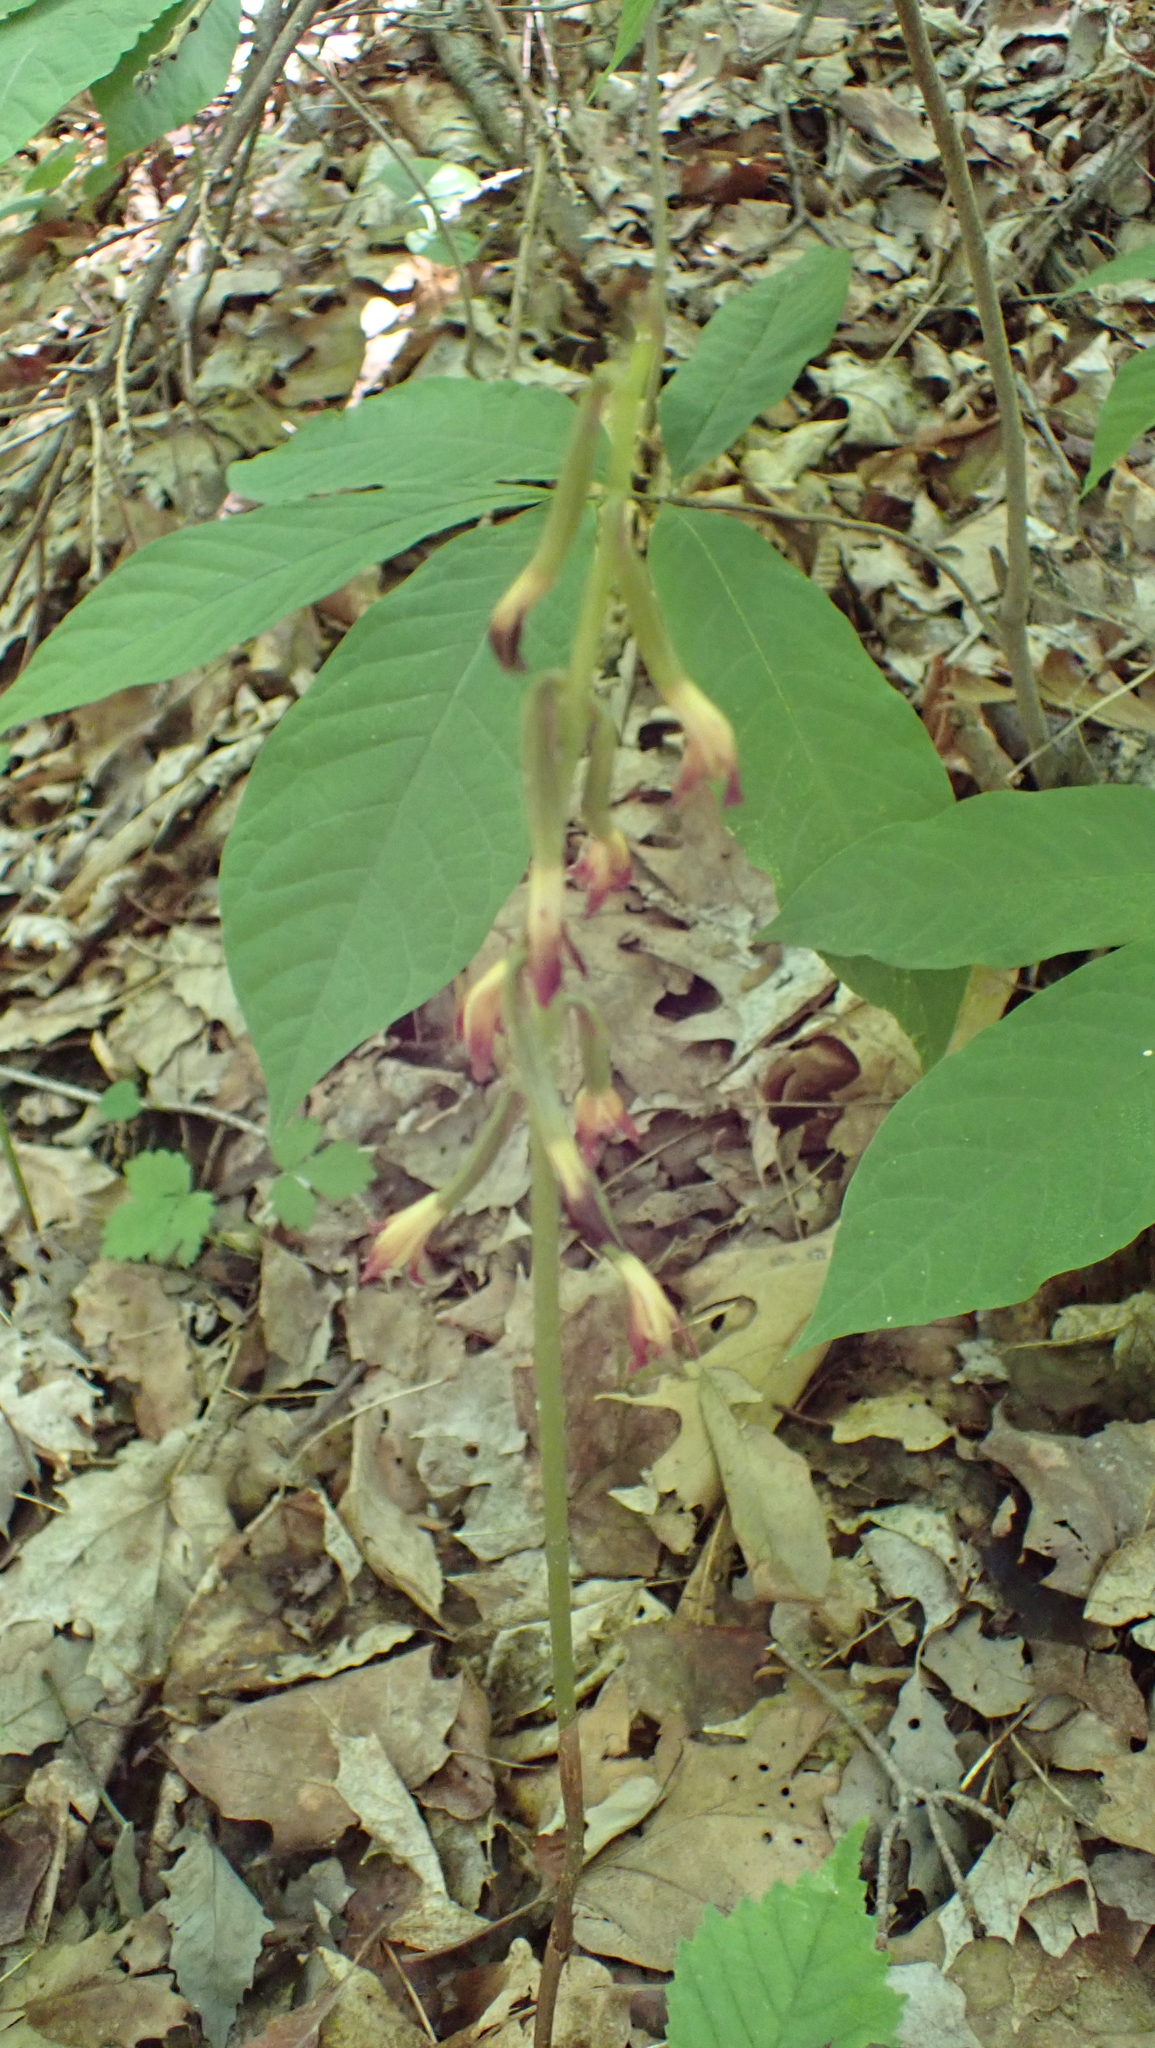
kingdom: Plantae
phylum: Tracheophyta
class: Liliopsida
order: Asparagales
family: Orchidaceae
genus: Aplectrum
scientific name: Aplectrum hyemale
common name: Adam-and-eve
